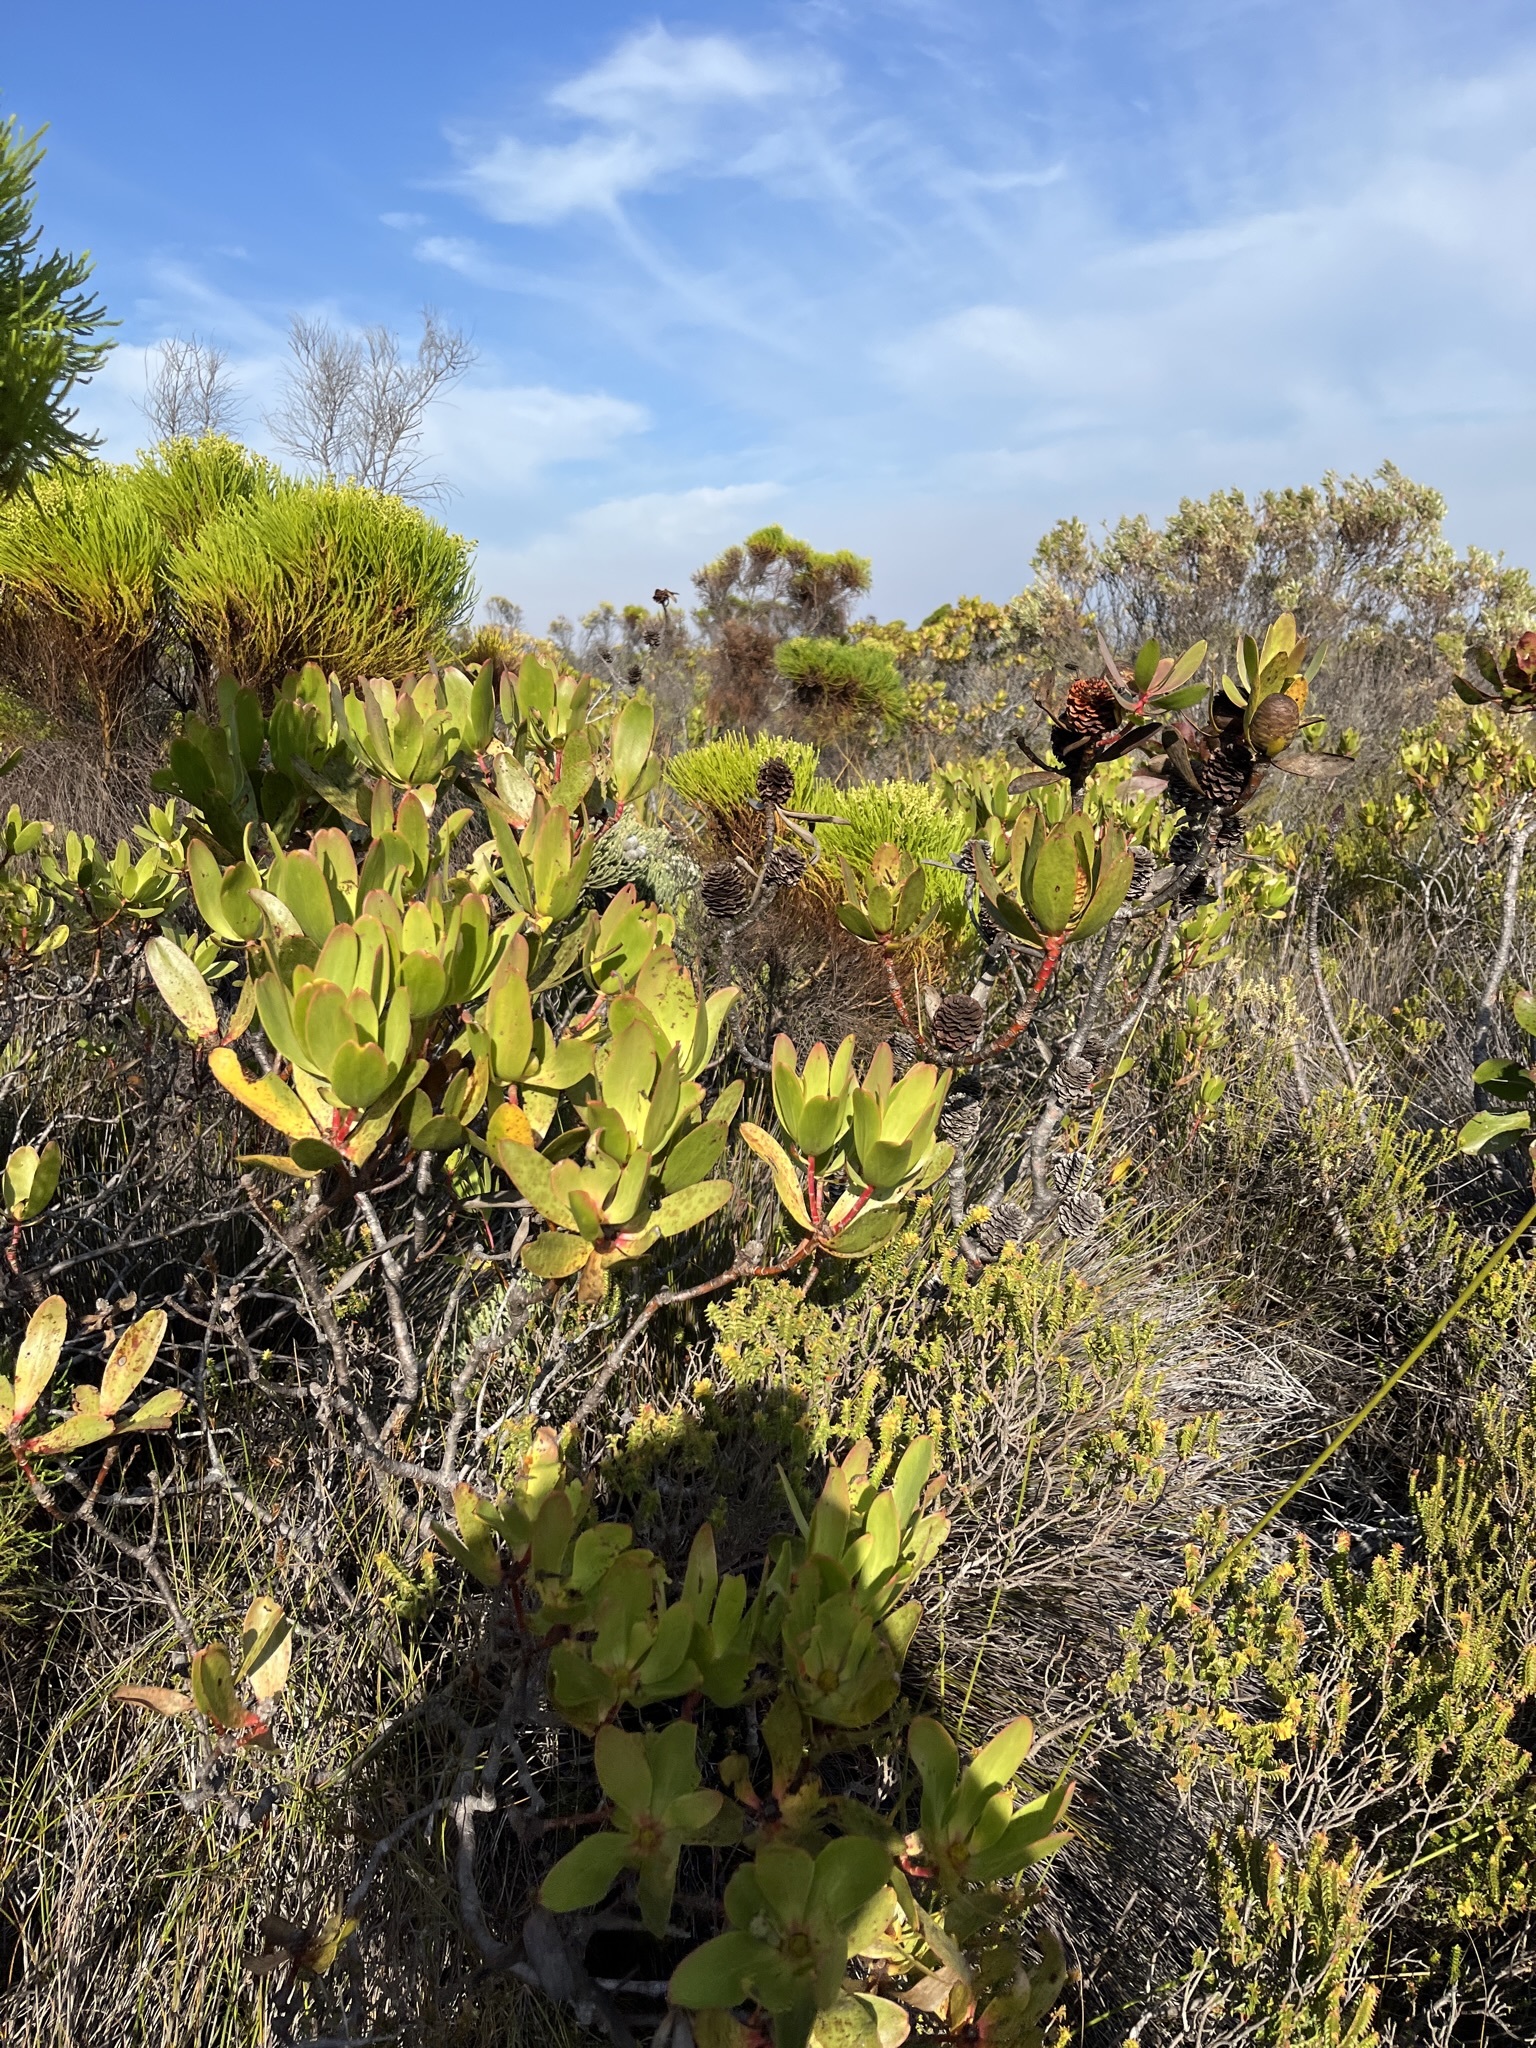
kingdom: Plantae
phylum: Tracheophyta
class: Magnoliopsida
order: Proteales
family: Proteaceae
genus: Leucadendron
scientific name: Leucadendron gandogeri
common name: Broad-leaf conebush
